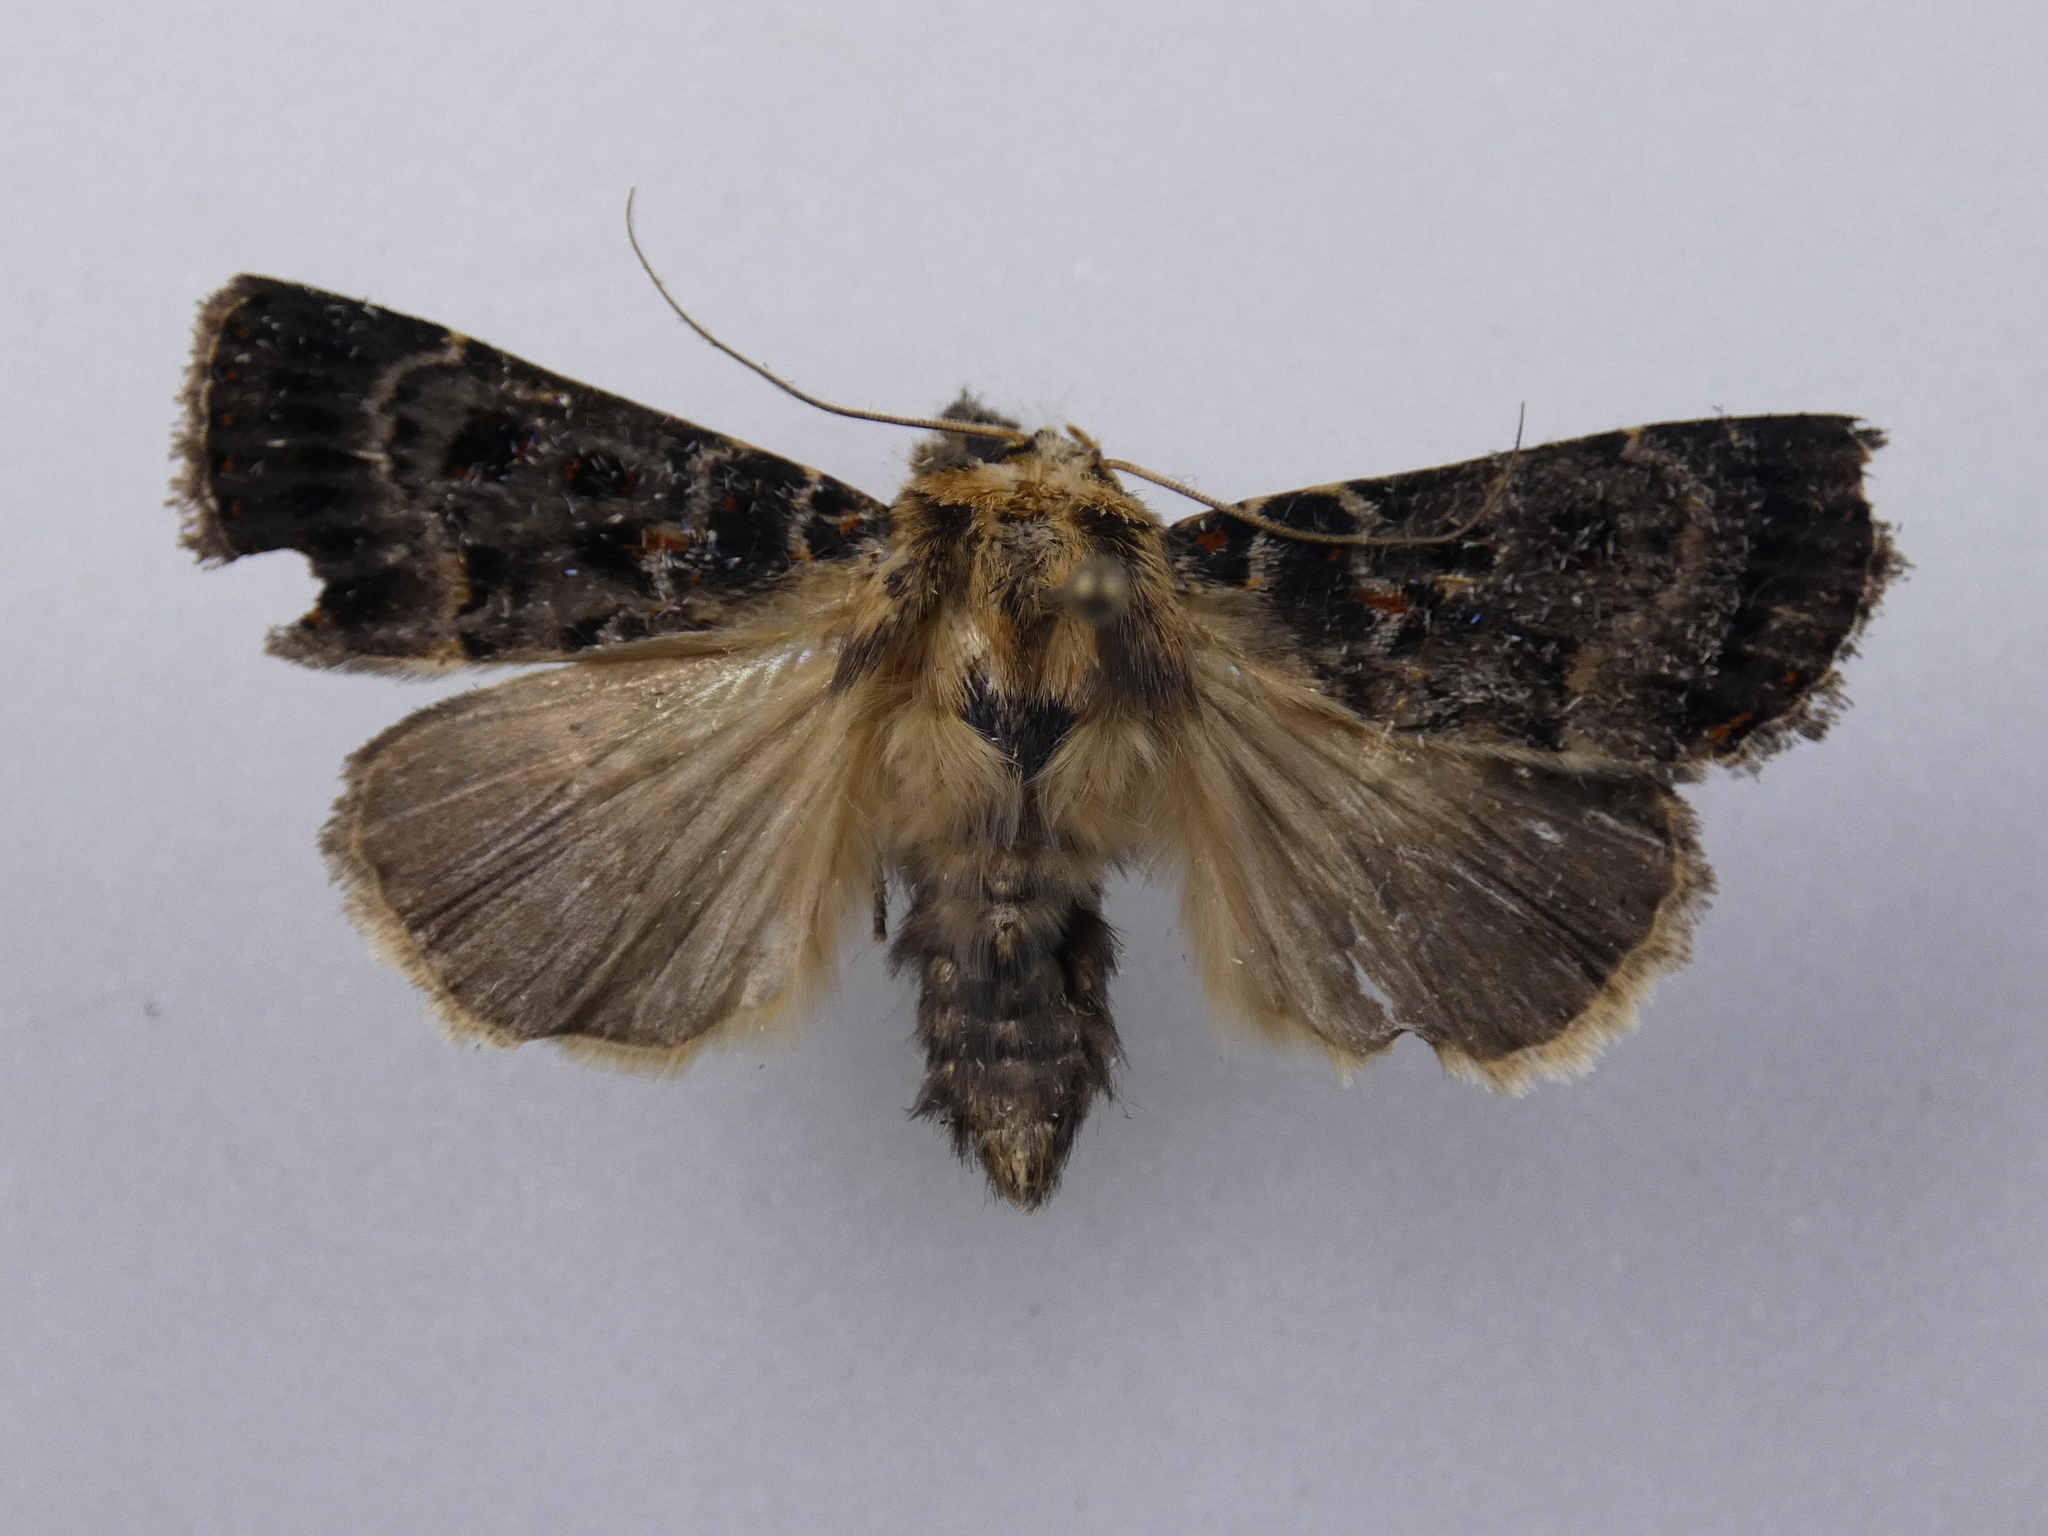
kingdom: Animalia
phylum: Arthropoda
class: Insecta
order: Lepidoptera
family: Noctuidae
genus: Proteuxoa
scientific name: Proteuxoa sanguinipuncta
